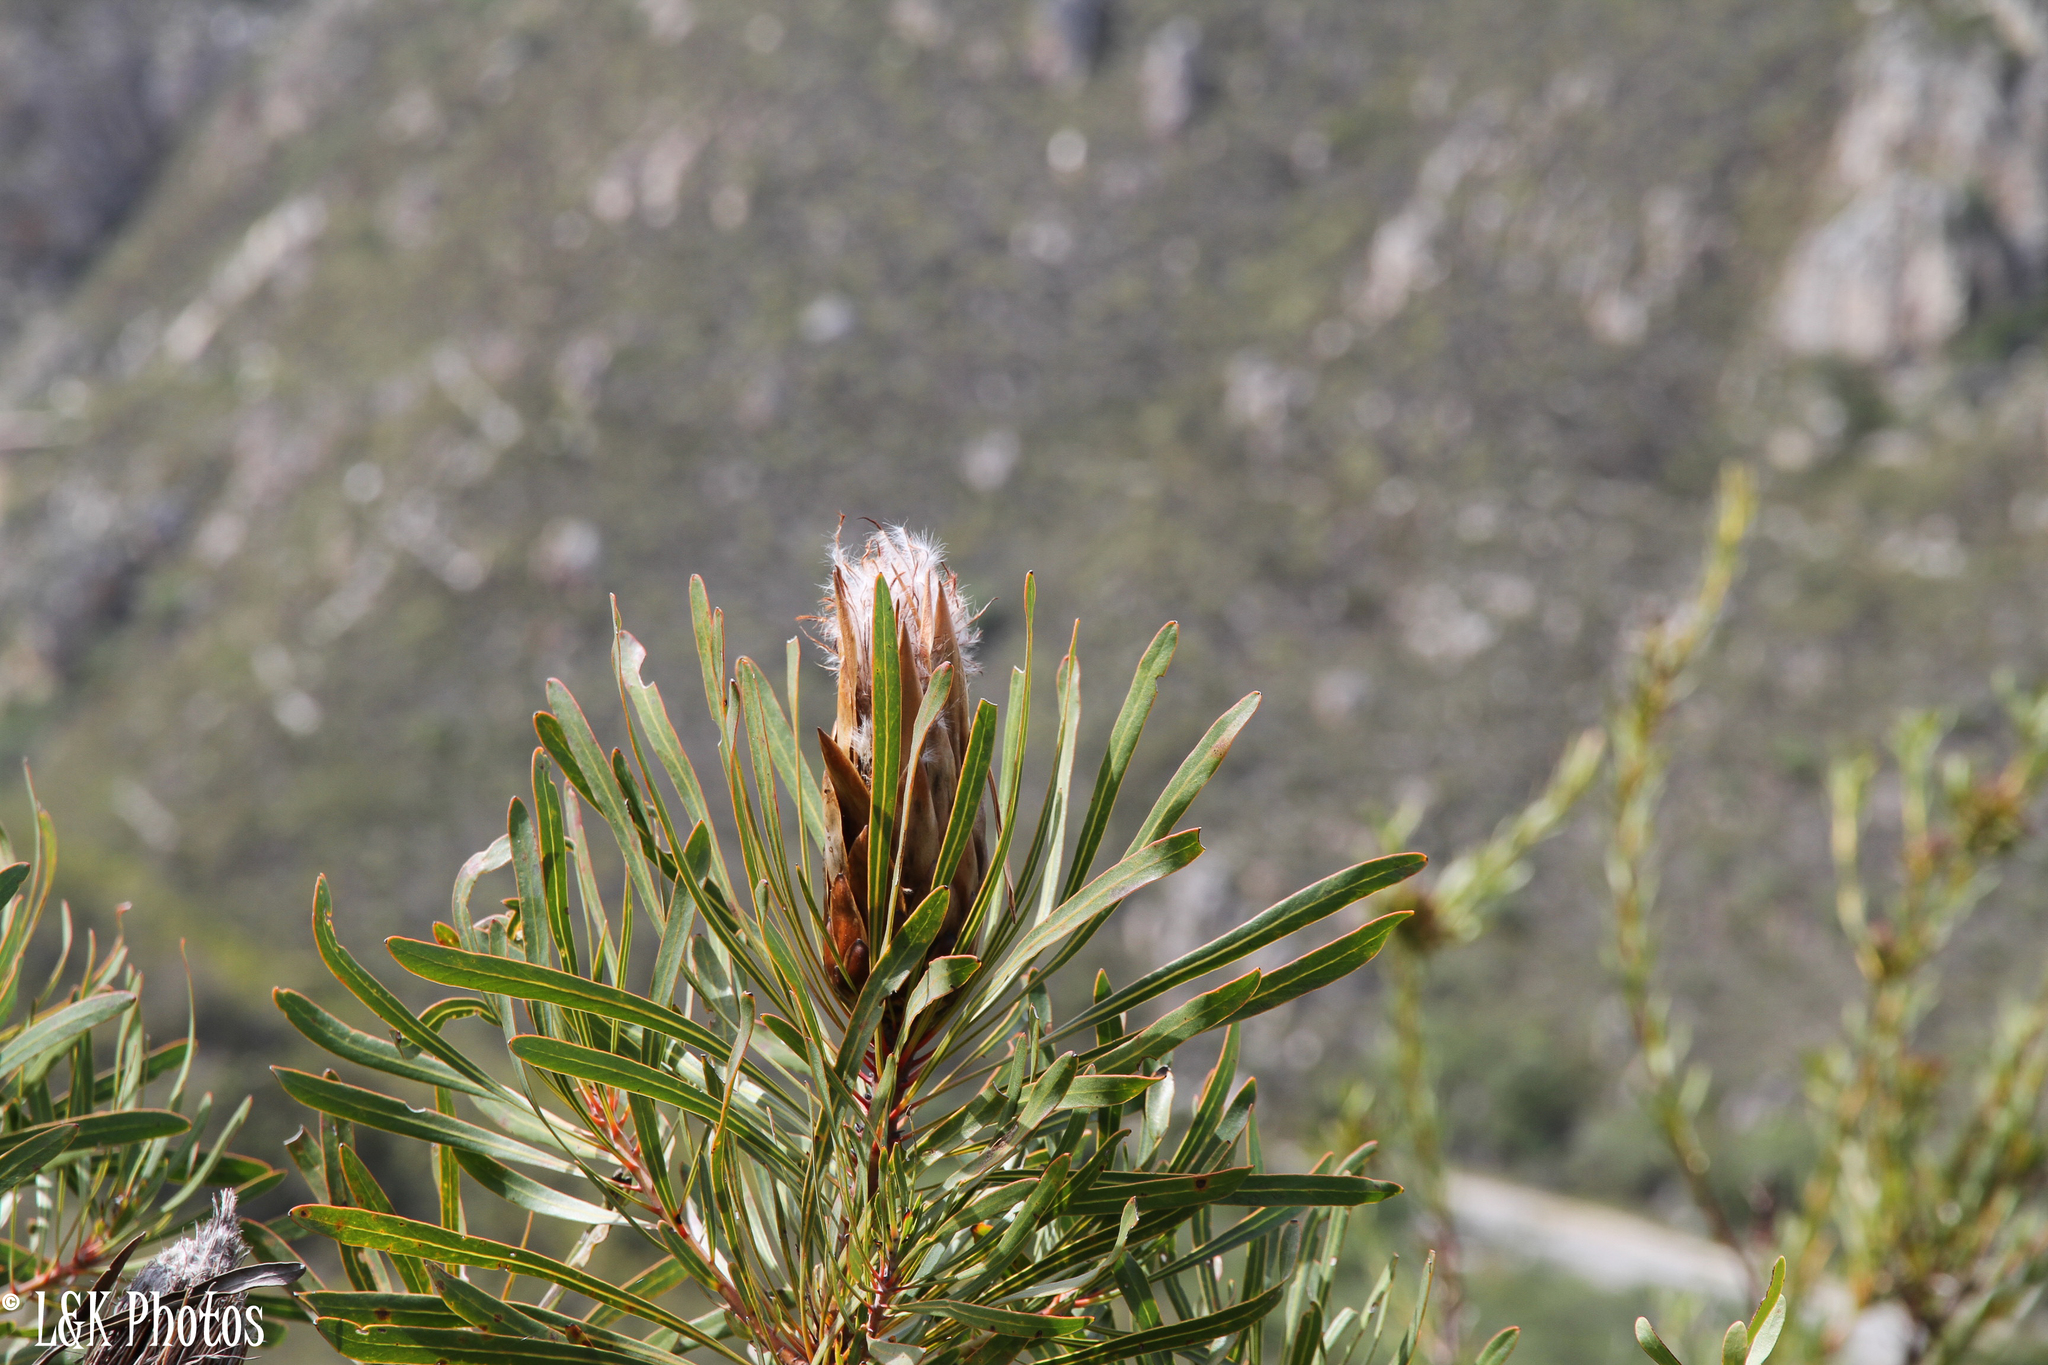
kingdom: Plantae
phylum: Tracheophyta
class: Magnoliopsida
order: Proteales
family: Proteaceae
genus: Protea
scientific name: Protea longifolia
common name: Long-leaf sugarbush
